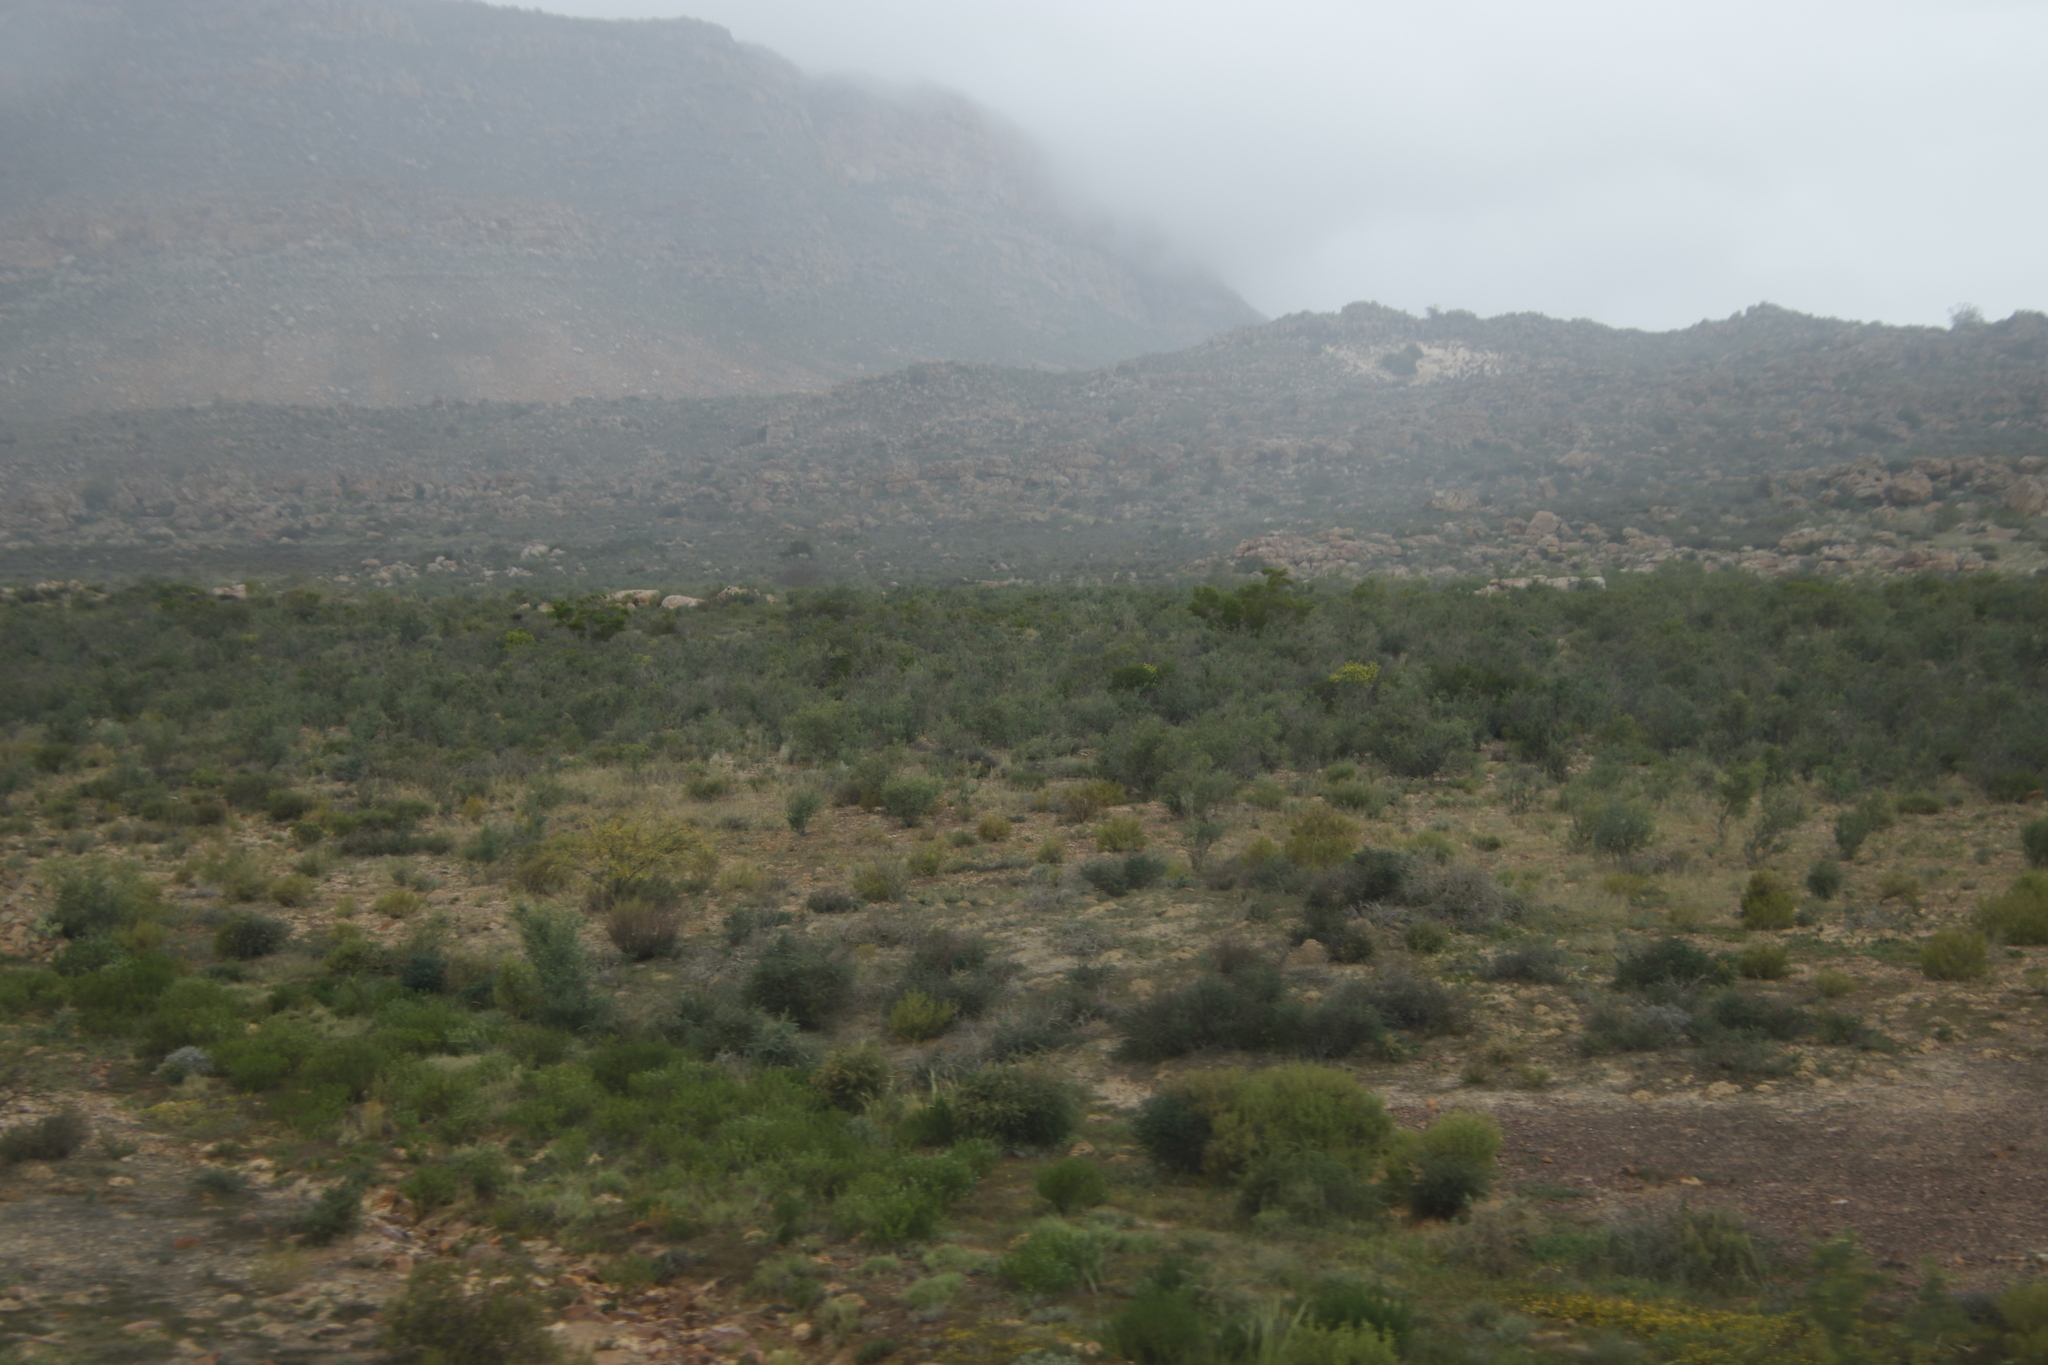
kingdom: Plantae
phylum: Tracheophyta
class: Magnoliopsida
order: Solanales
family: Montiniaceae
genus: Montinia
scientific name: Montinia caryophyllacea
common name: Wild clove-bush
